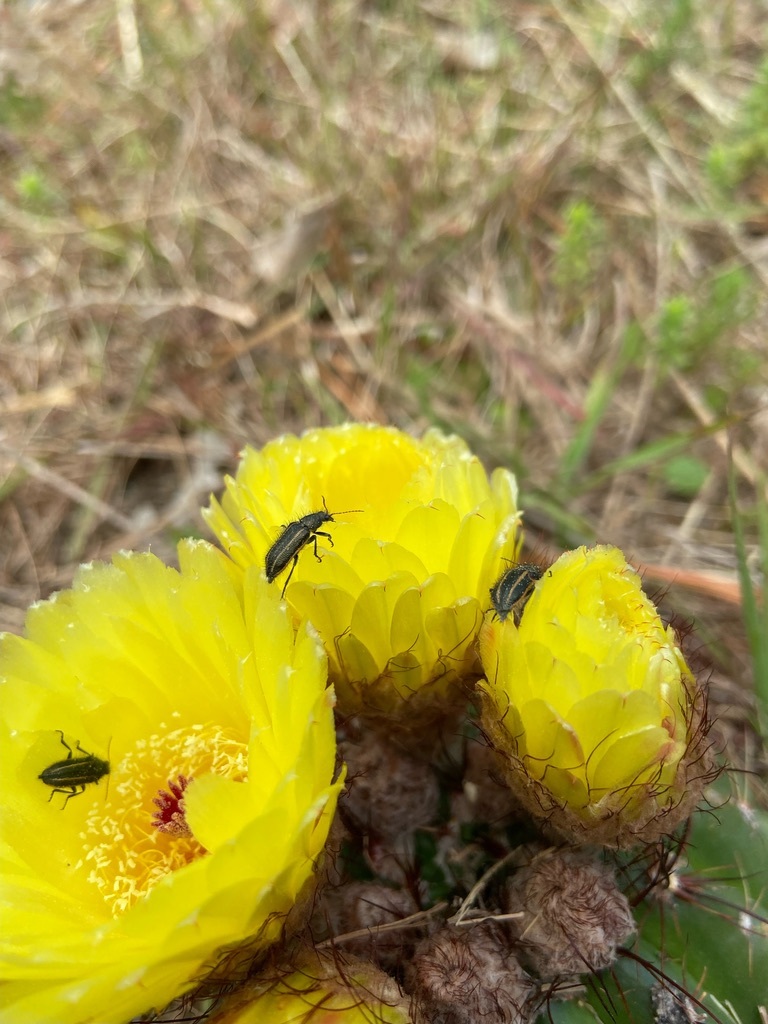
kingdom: Plantae
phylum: Tracheophyta
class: Magnoliopsida
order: Caryophyllales
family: Cactaceae
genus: Parodia
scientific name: Parodia ottonis
